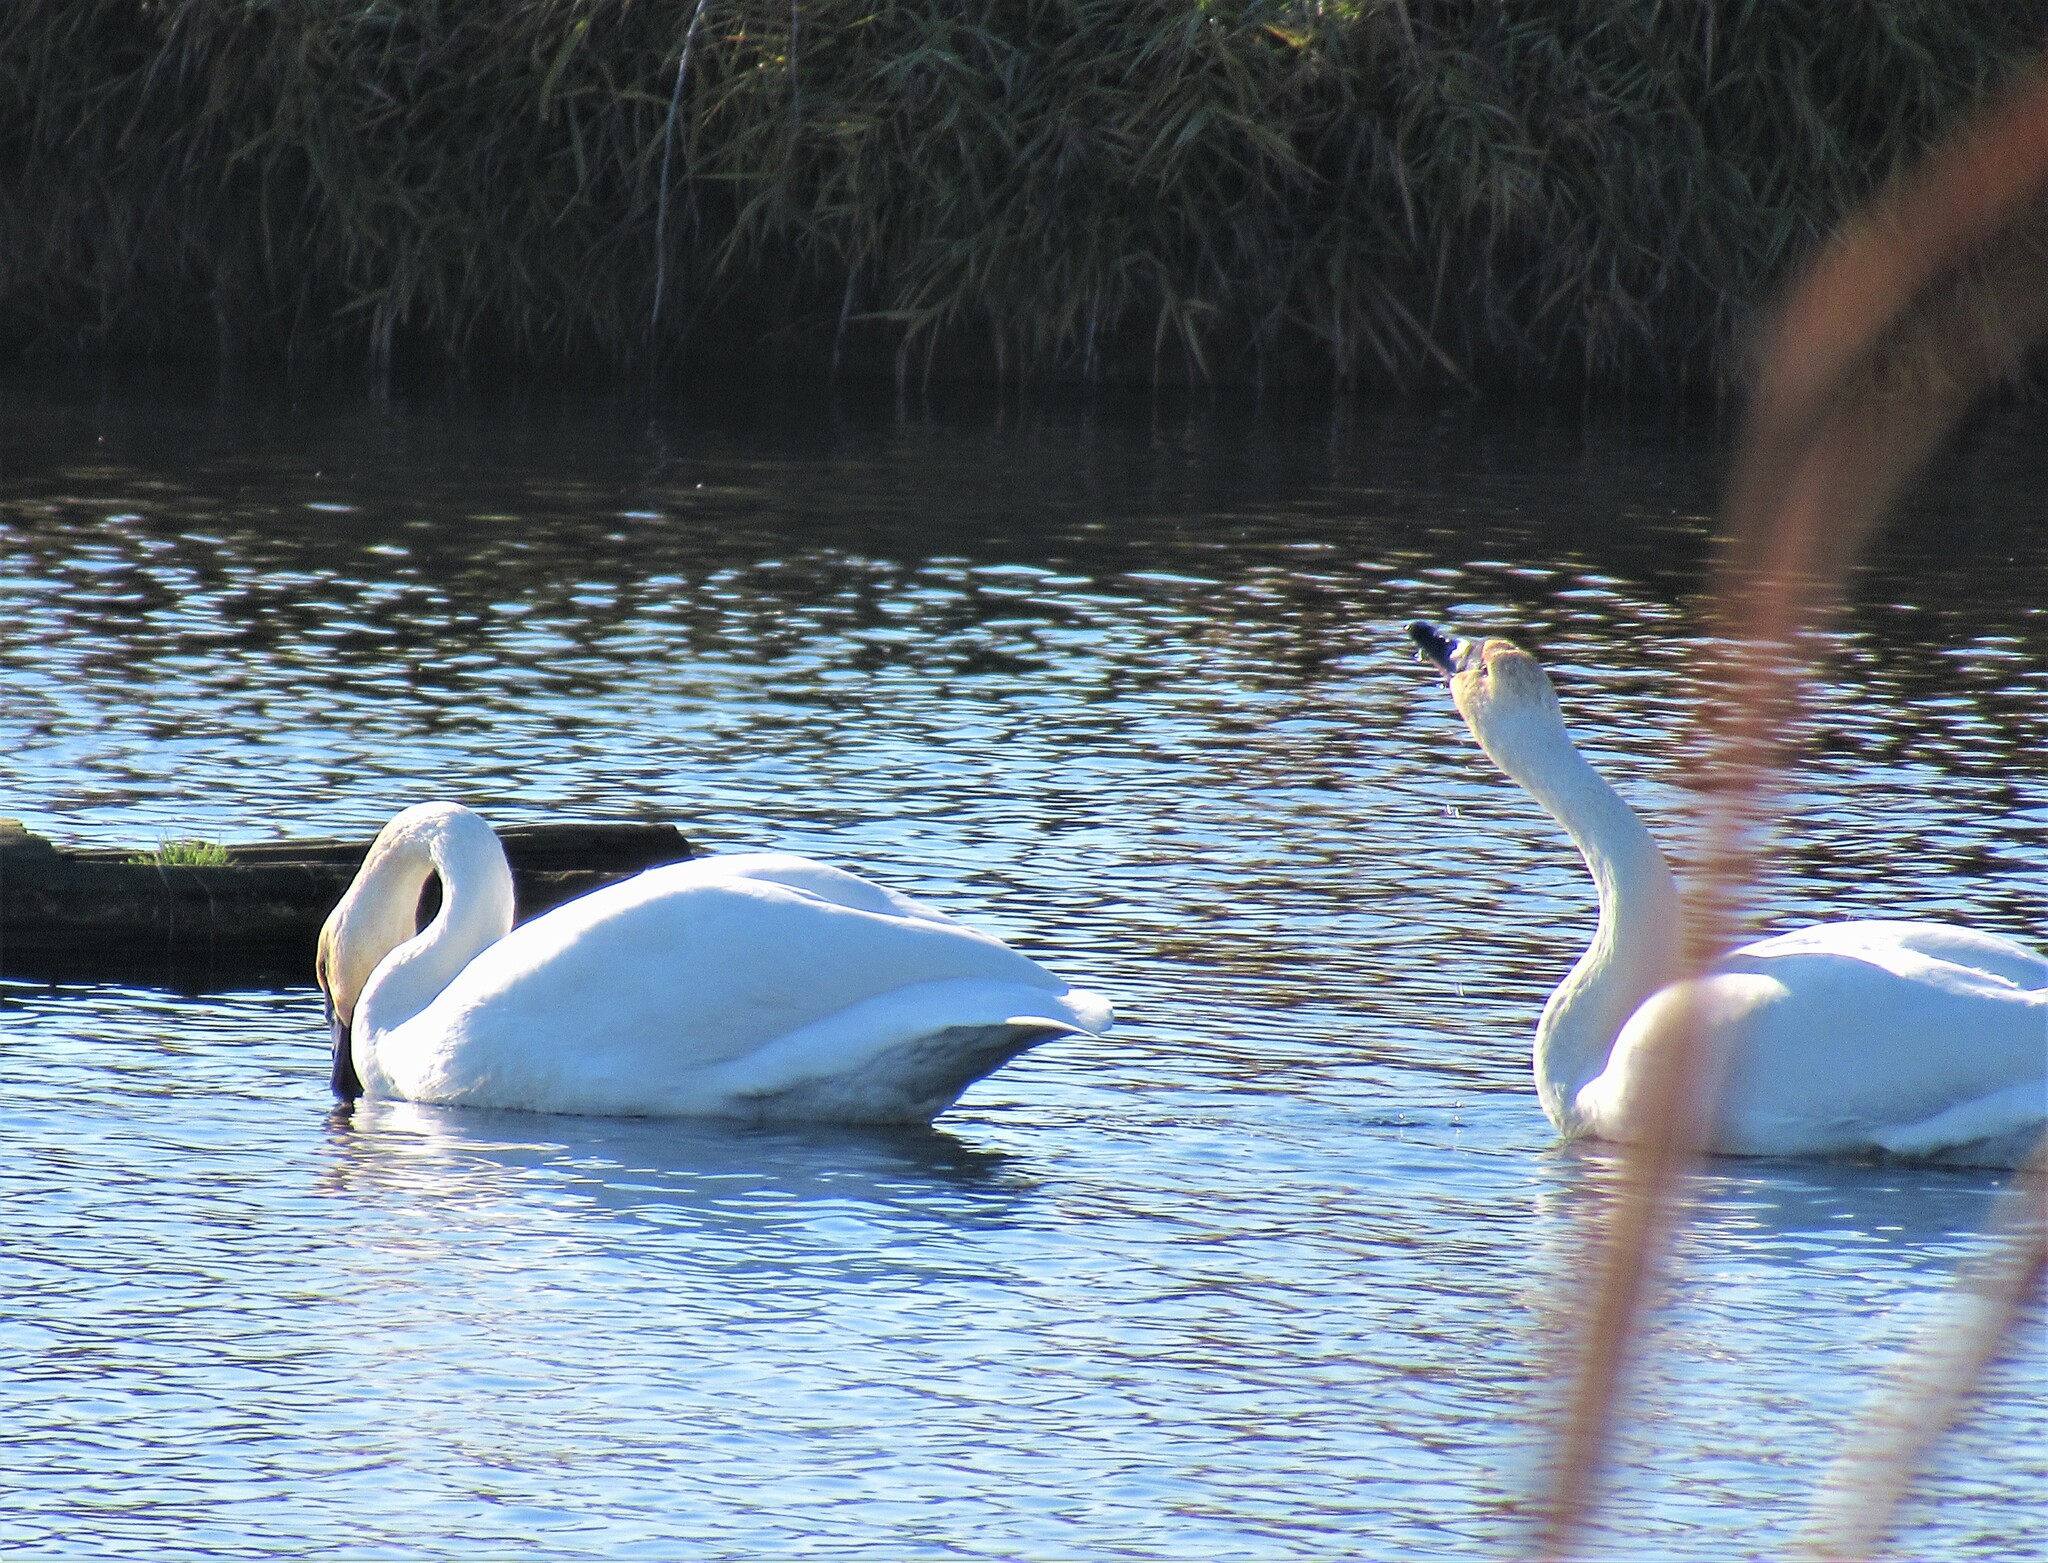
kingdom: Animalia
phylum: Chordata
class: Aves
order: Anseriformes
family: Anatidae
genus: Cygnus
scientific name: Cygnus buccinator
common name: Trumpeter swan
